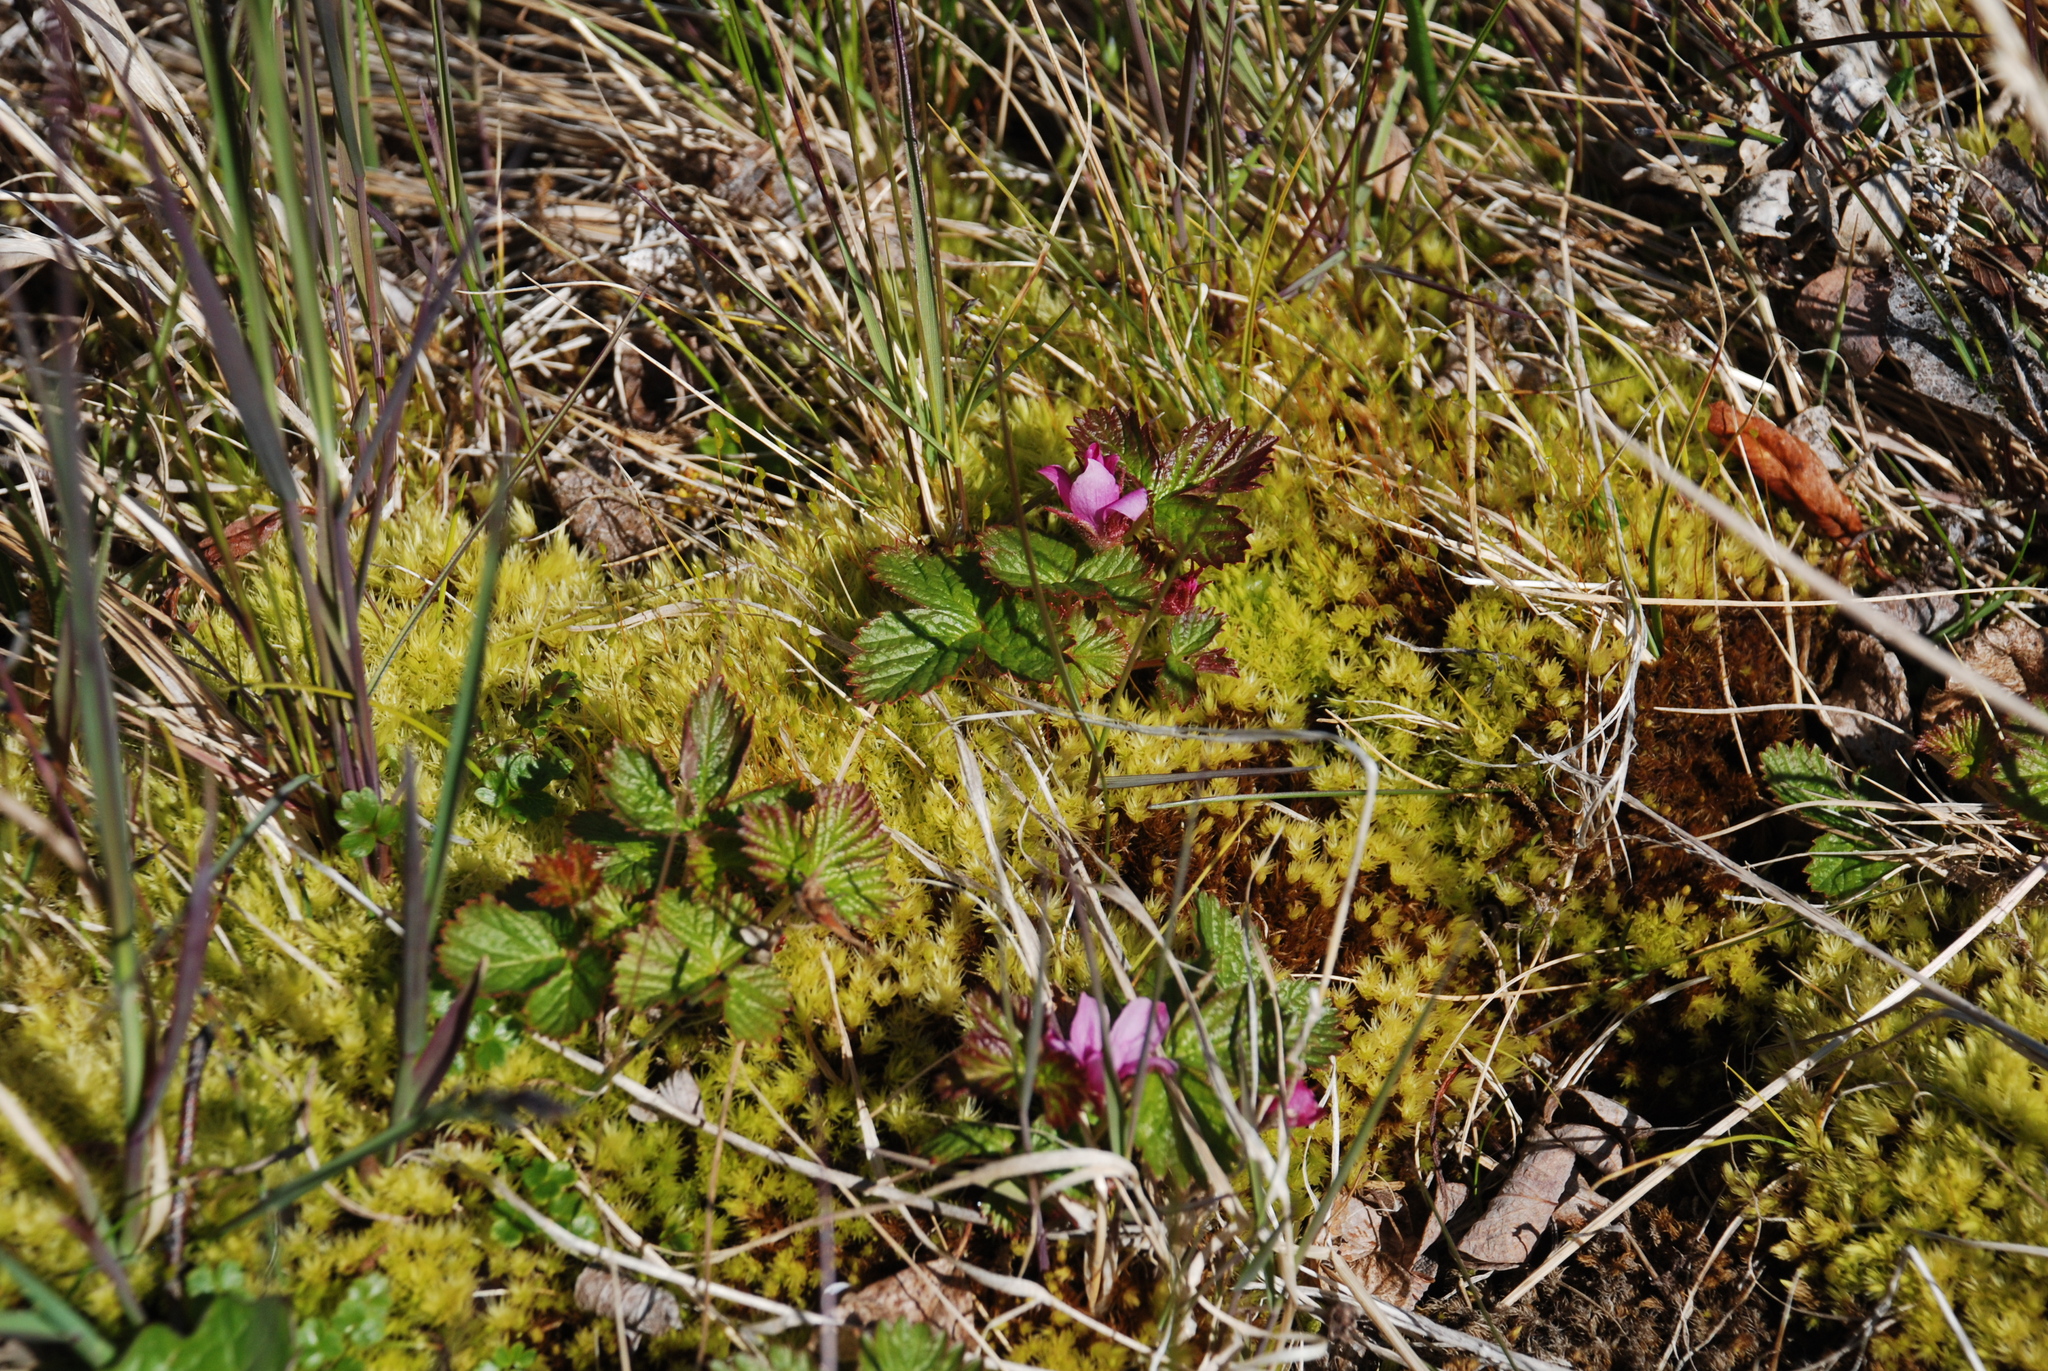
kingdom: Plantae
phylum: Tracheophyta
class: Magnoliopsida
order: Rosales
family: Rosaceae
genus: Rubus
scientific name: Rubus arcticus
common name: Arctic bramble
